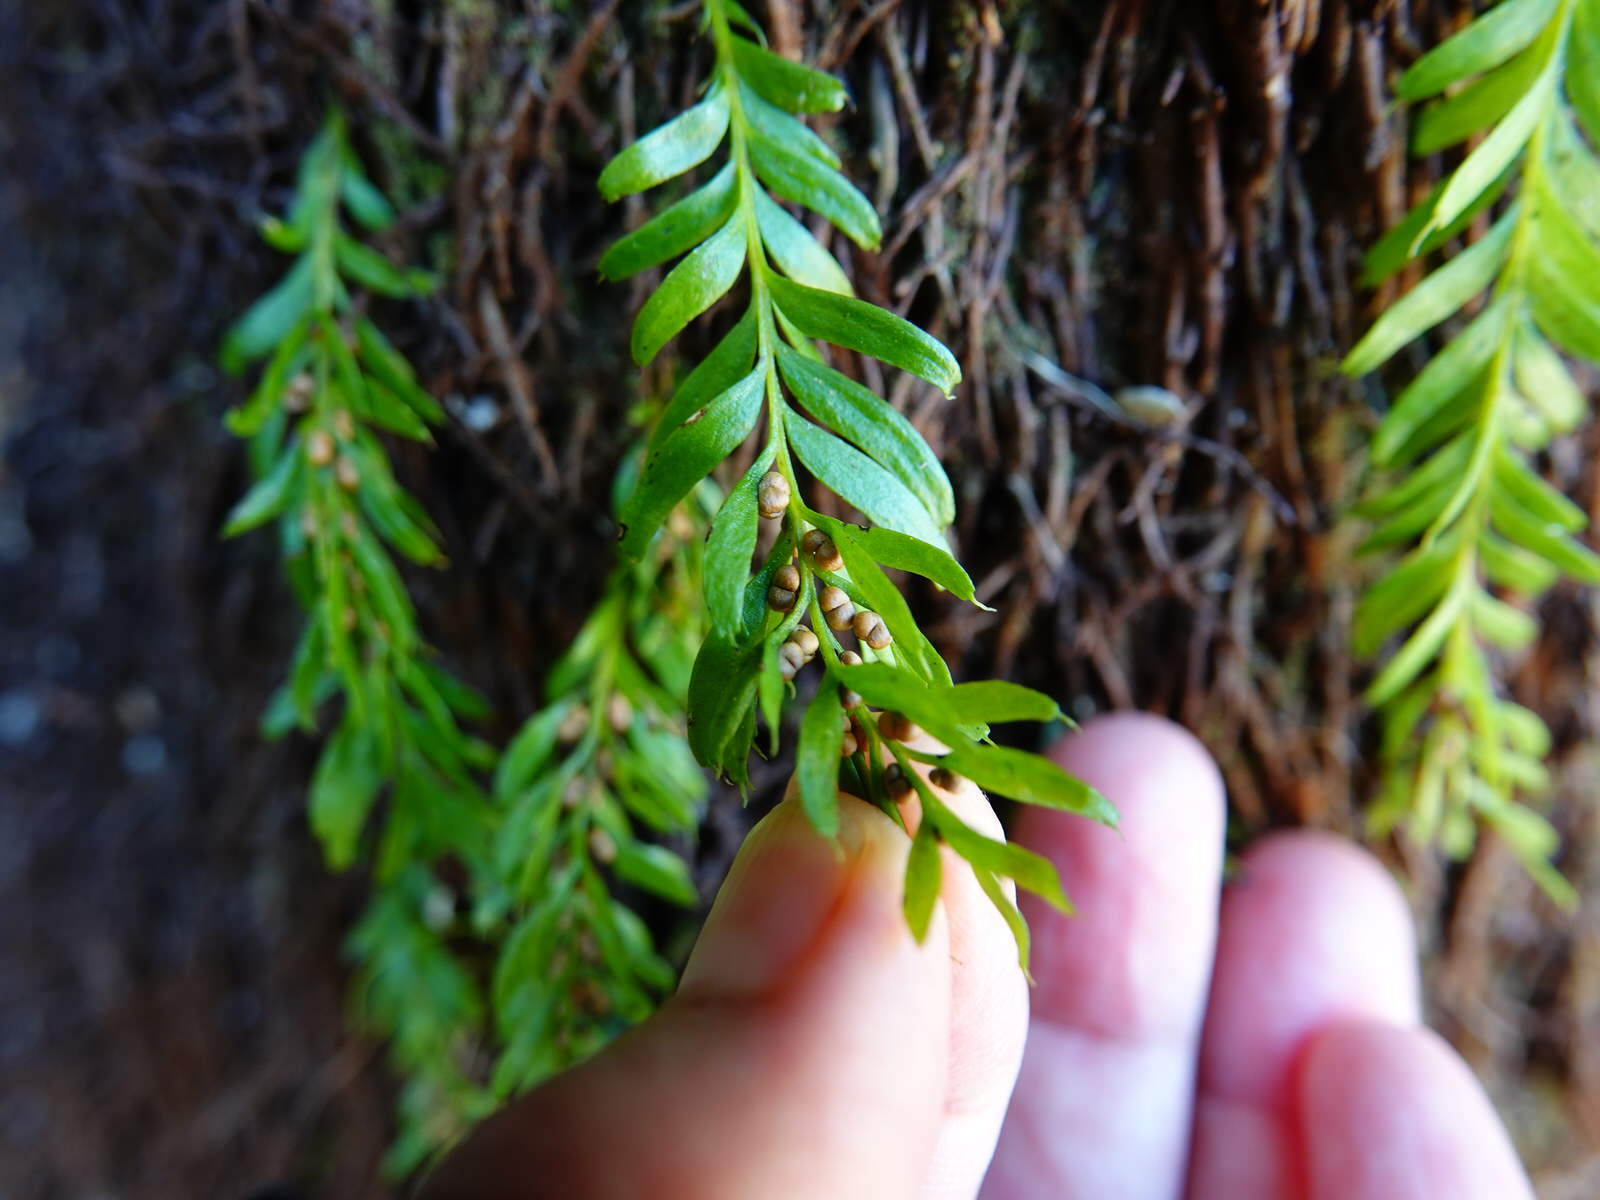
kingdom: Plantae
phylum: Tracheophyta
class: Polypodiopsida
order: Psilotales
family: Psilotaceae
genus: Tmesipteris
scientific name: Tmesipteris sigmatifolia
